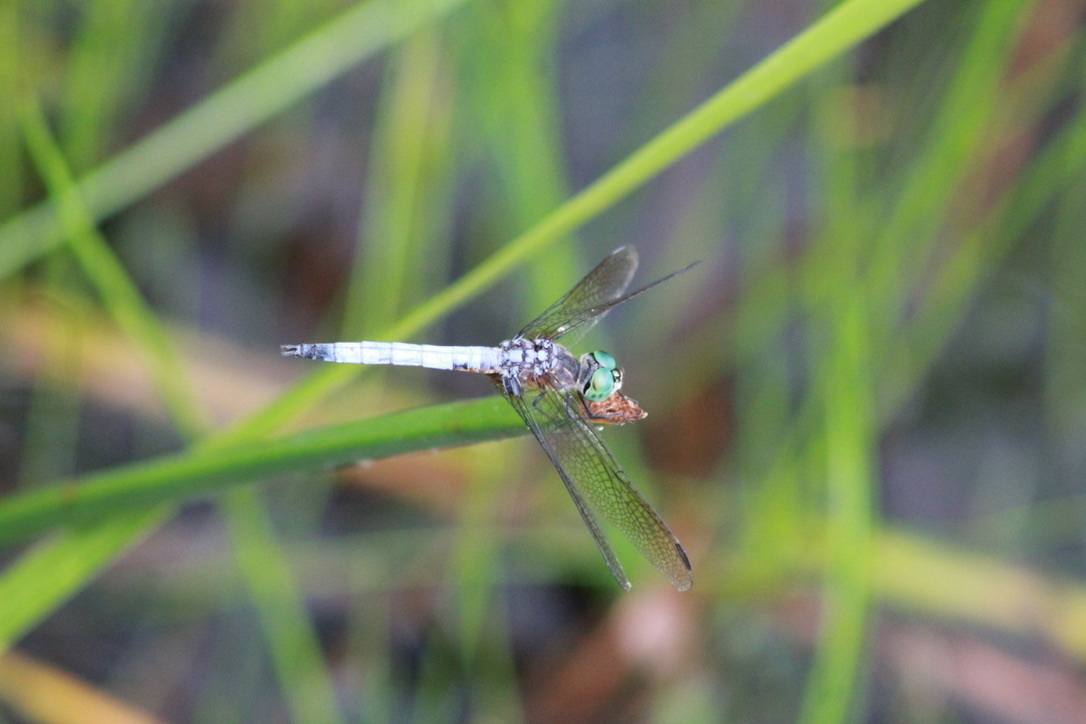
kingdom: Animalia
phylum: Arthropoda
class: Insecta
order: Odonata
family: Libellulidae
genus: Pachydiplax
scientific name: Pachydiplax longipennis
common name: Blue dasher
